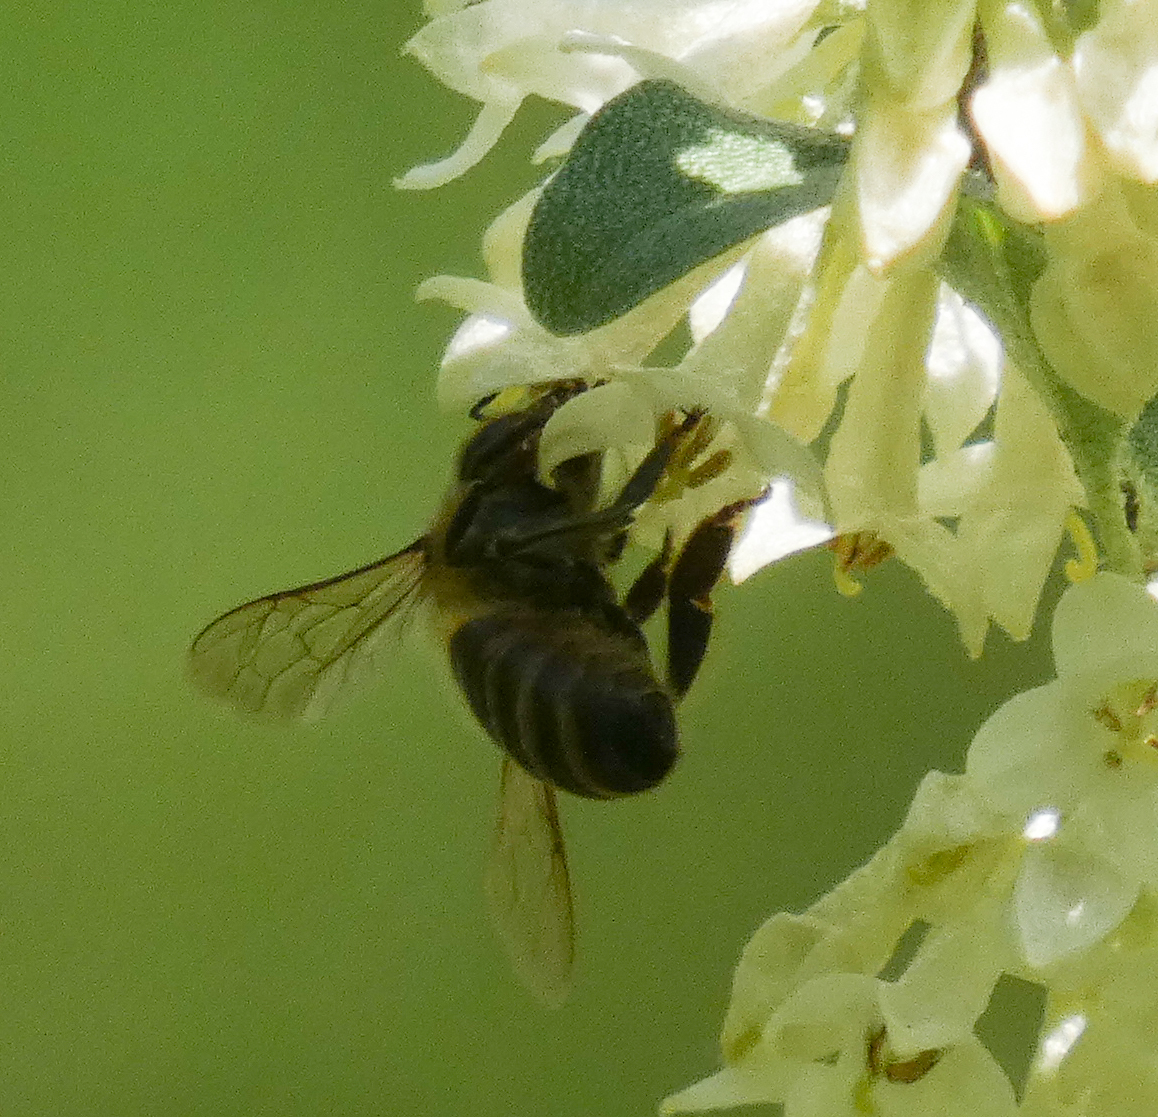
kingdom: Animalia
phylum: Arthropoda
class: Insecta
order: Hymenoptera
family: Apidae
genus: Apis
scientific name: Apis mellifera
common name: Honey bee
